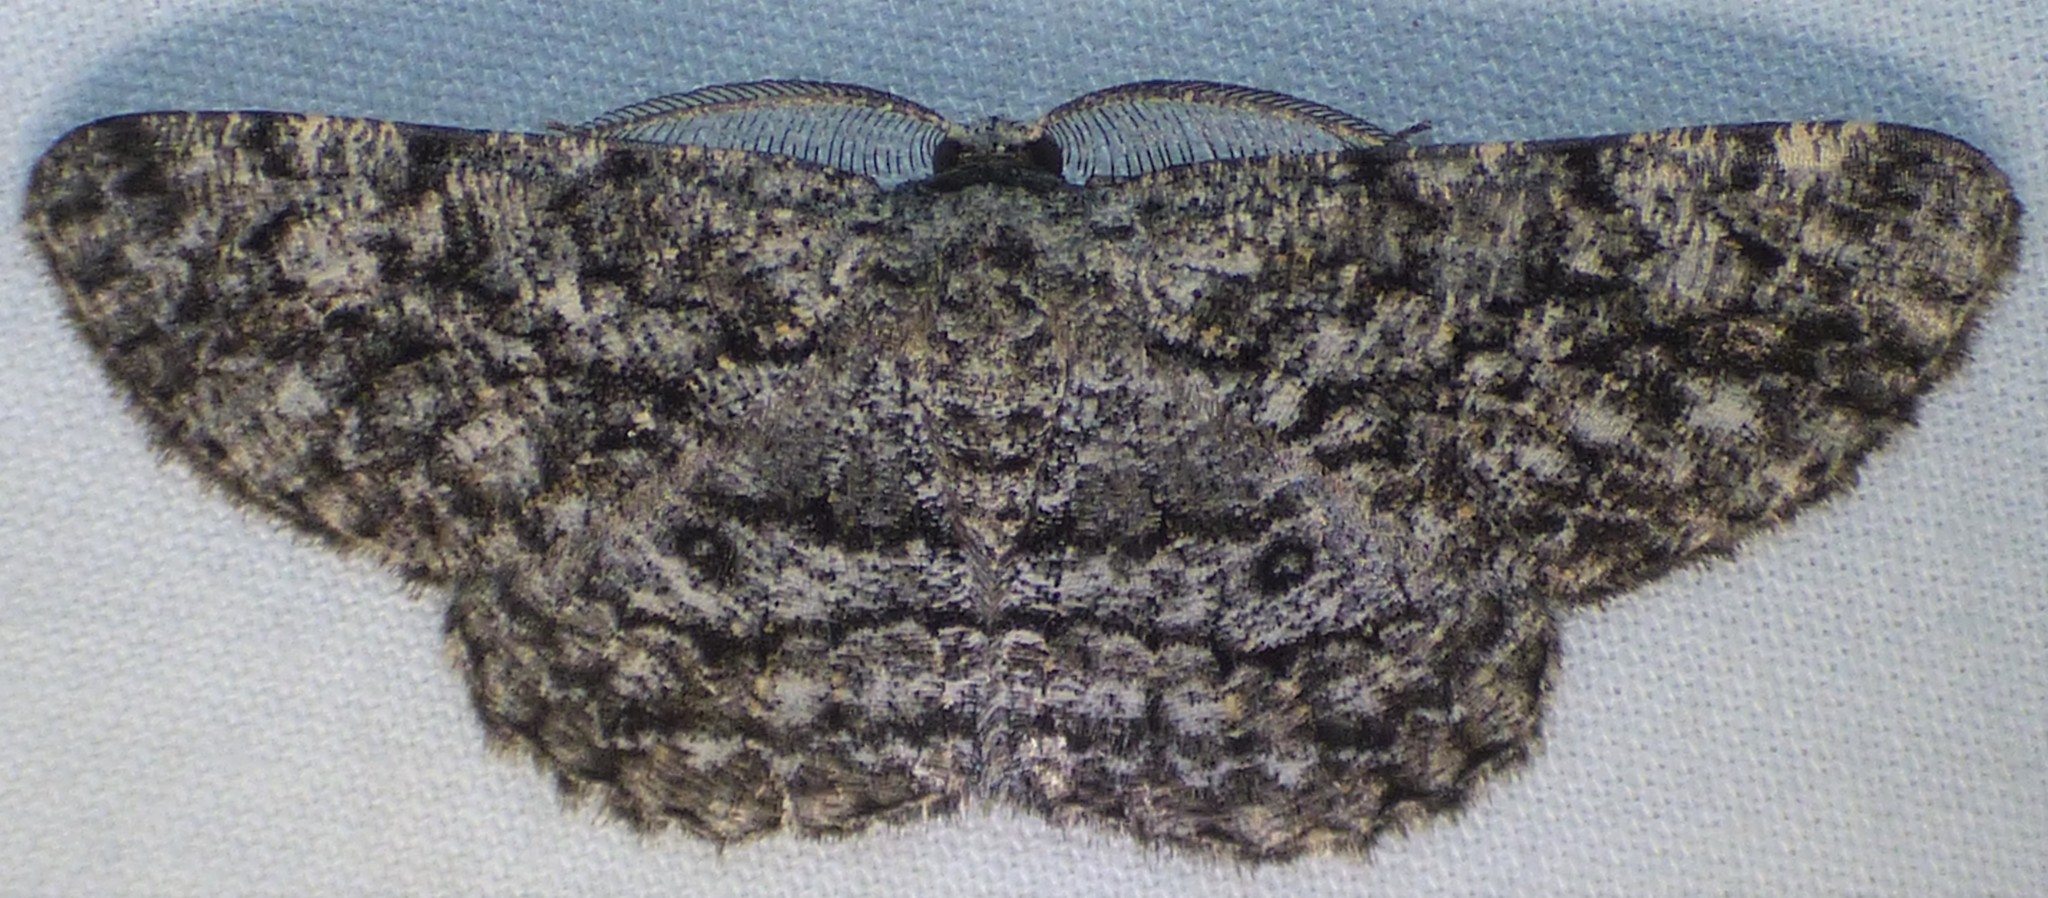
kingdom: Animalia
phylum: Arthropoda
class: Insecta
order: Lepidoptera
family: Geometridae
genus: Hypomecis
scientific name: Hypomecis umbrosaria
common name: Umber moth
